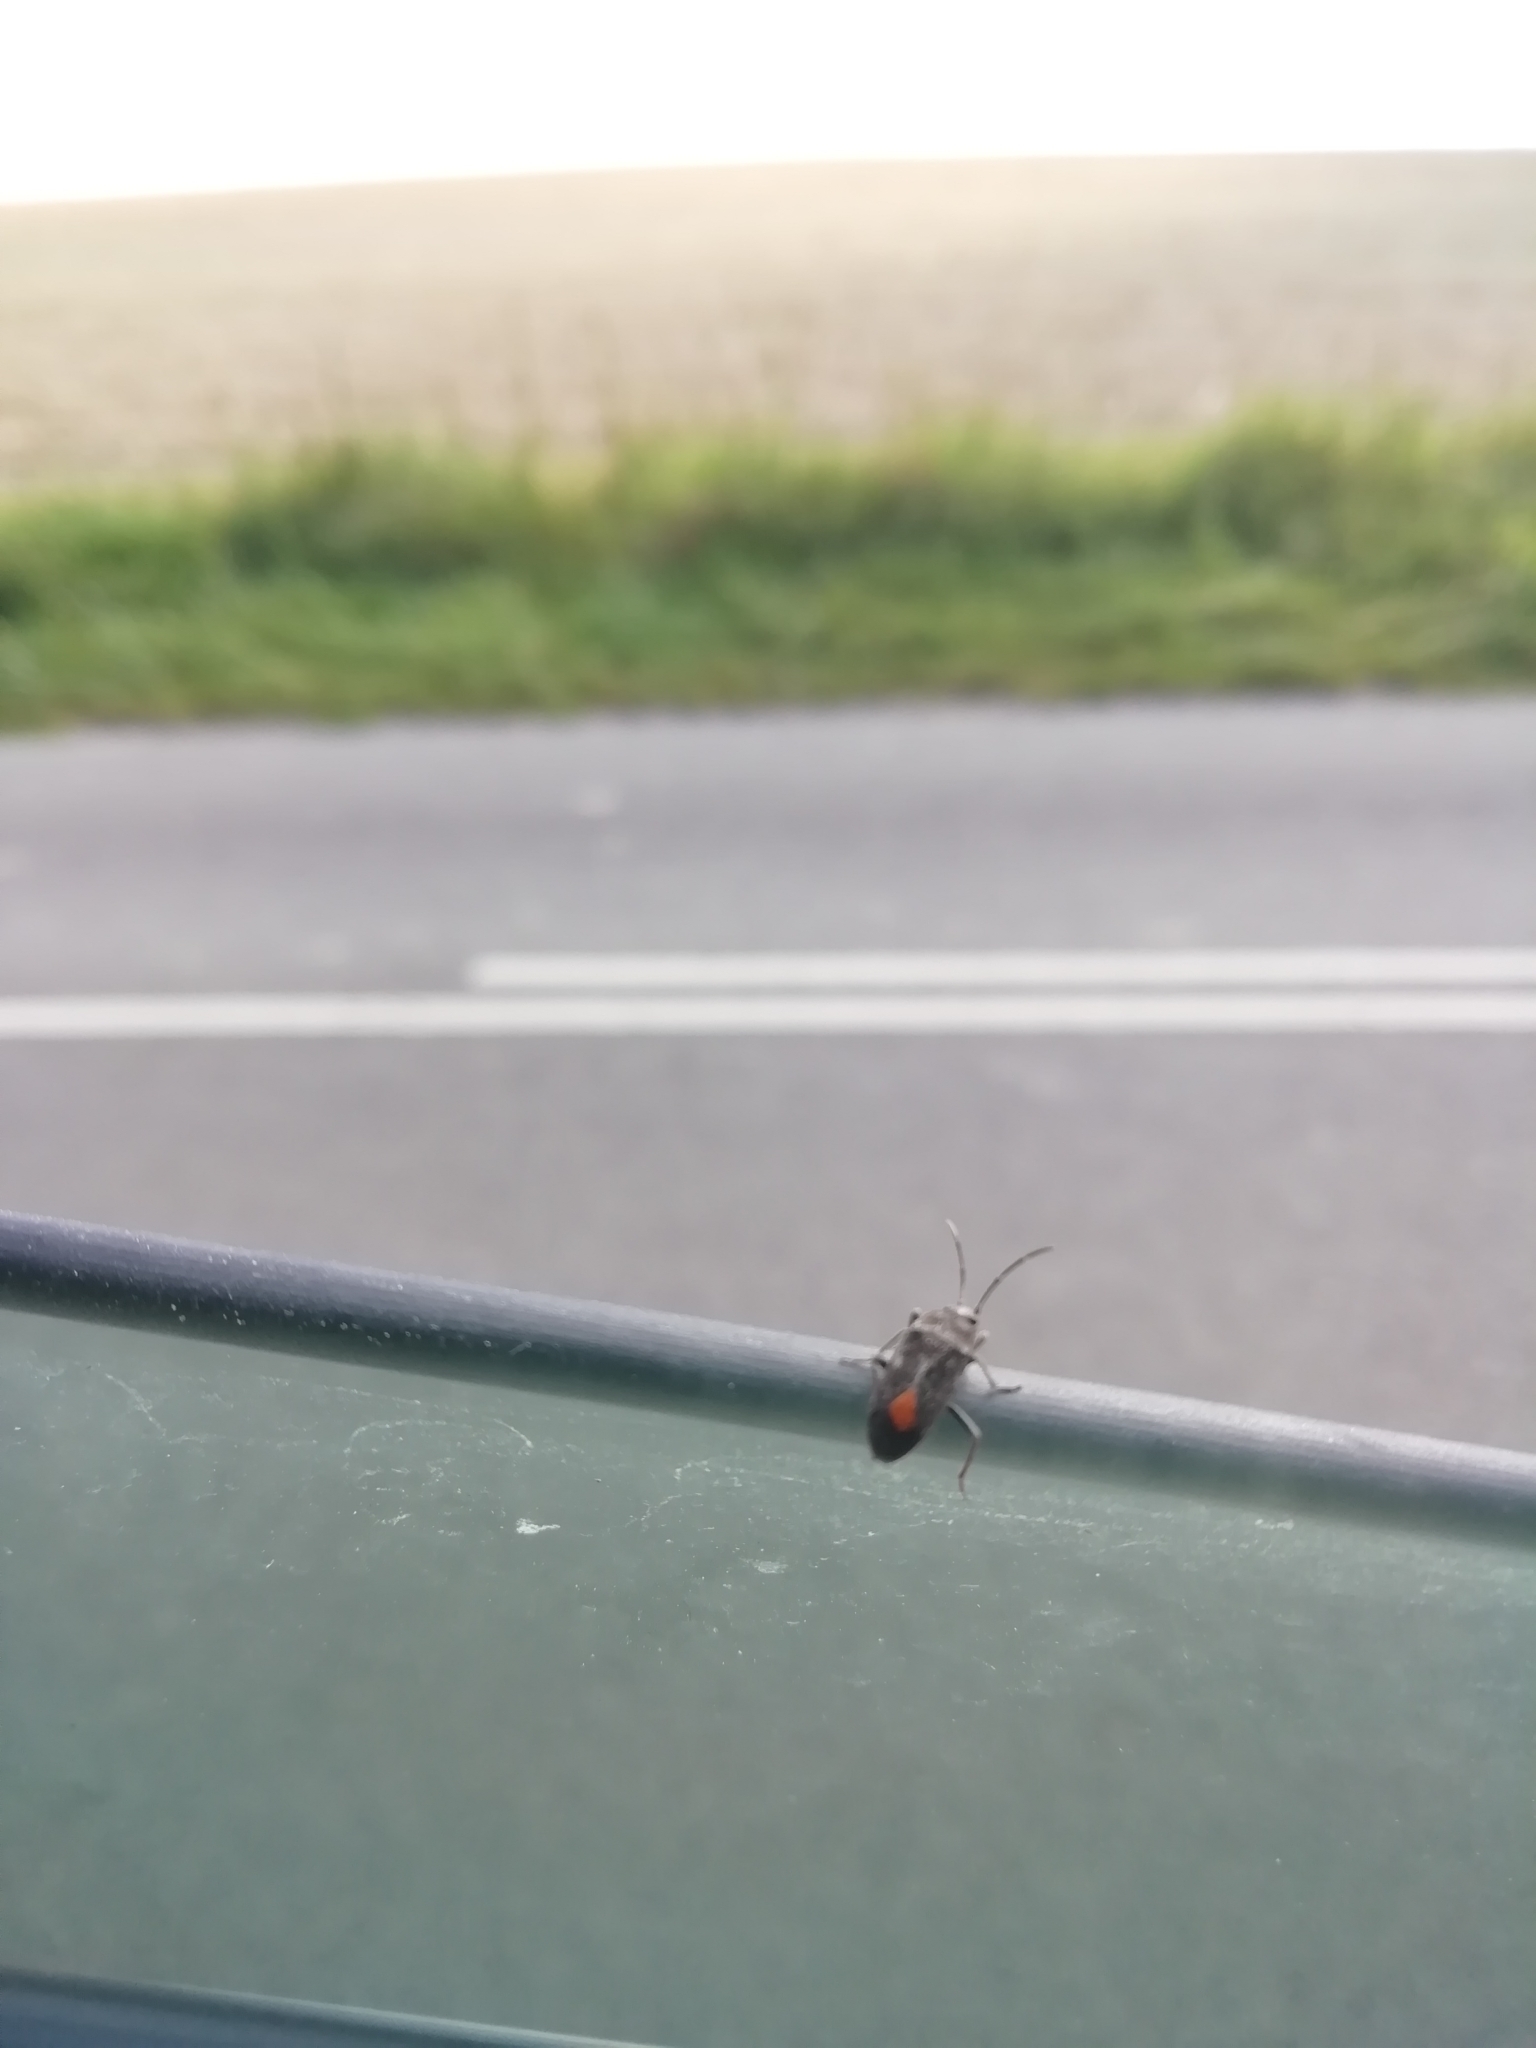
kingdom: Animalia
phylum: Arthropoda
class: Insecta
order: Hemiptera
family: Rhyparochromidae
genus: Aphanus
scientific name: Aphanus rolandri
